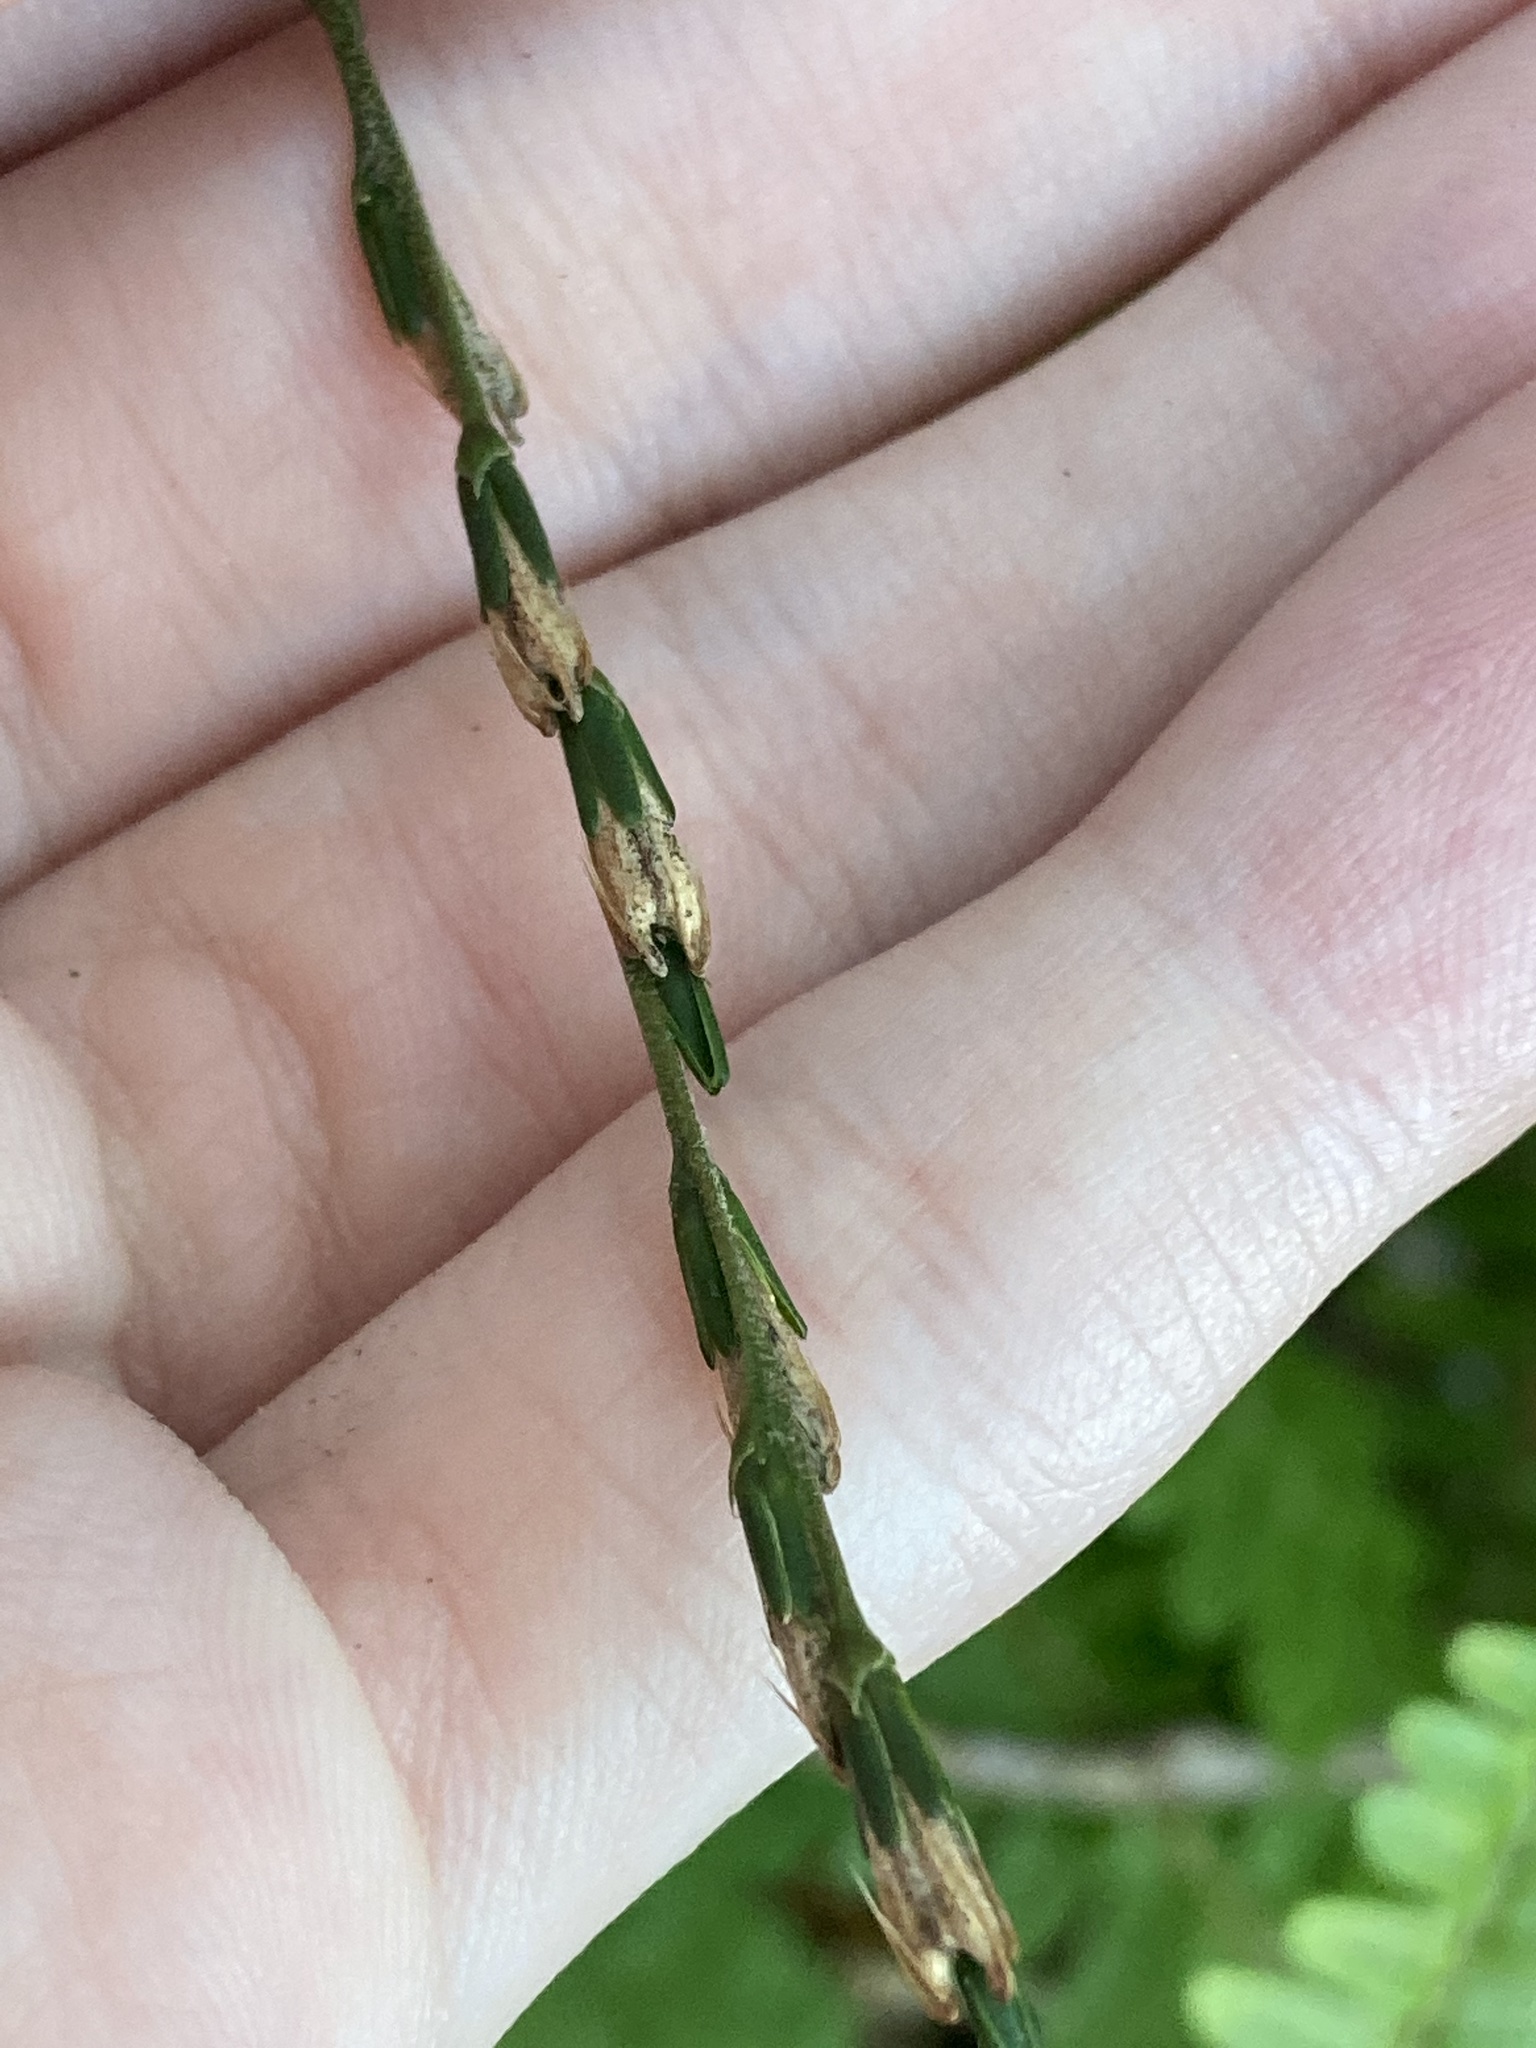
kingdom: Plantae
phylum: Tracheophyta
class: Magnoliopsida
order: Caryophyllales
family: Phytolaccaceae
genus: Petiveria
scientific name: Petiveria alliacea
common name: Garlicweed
